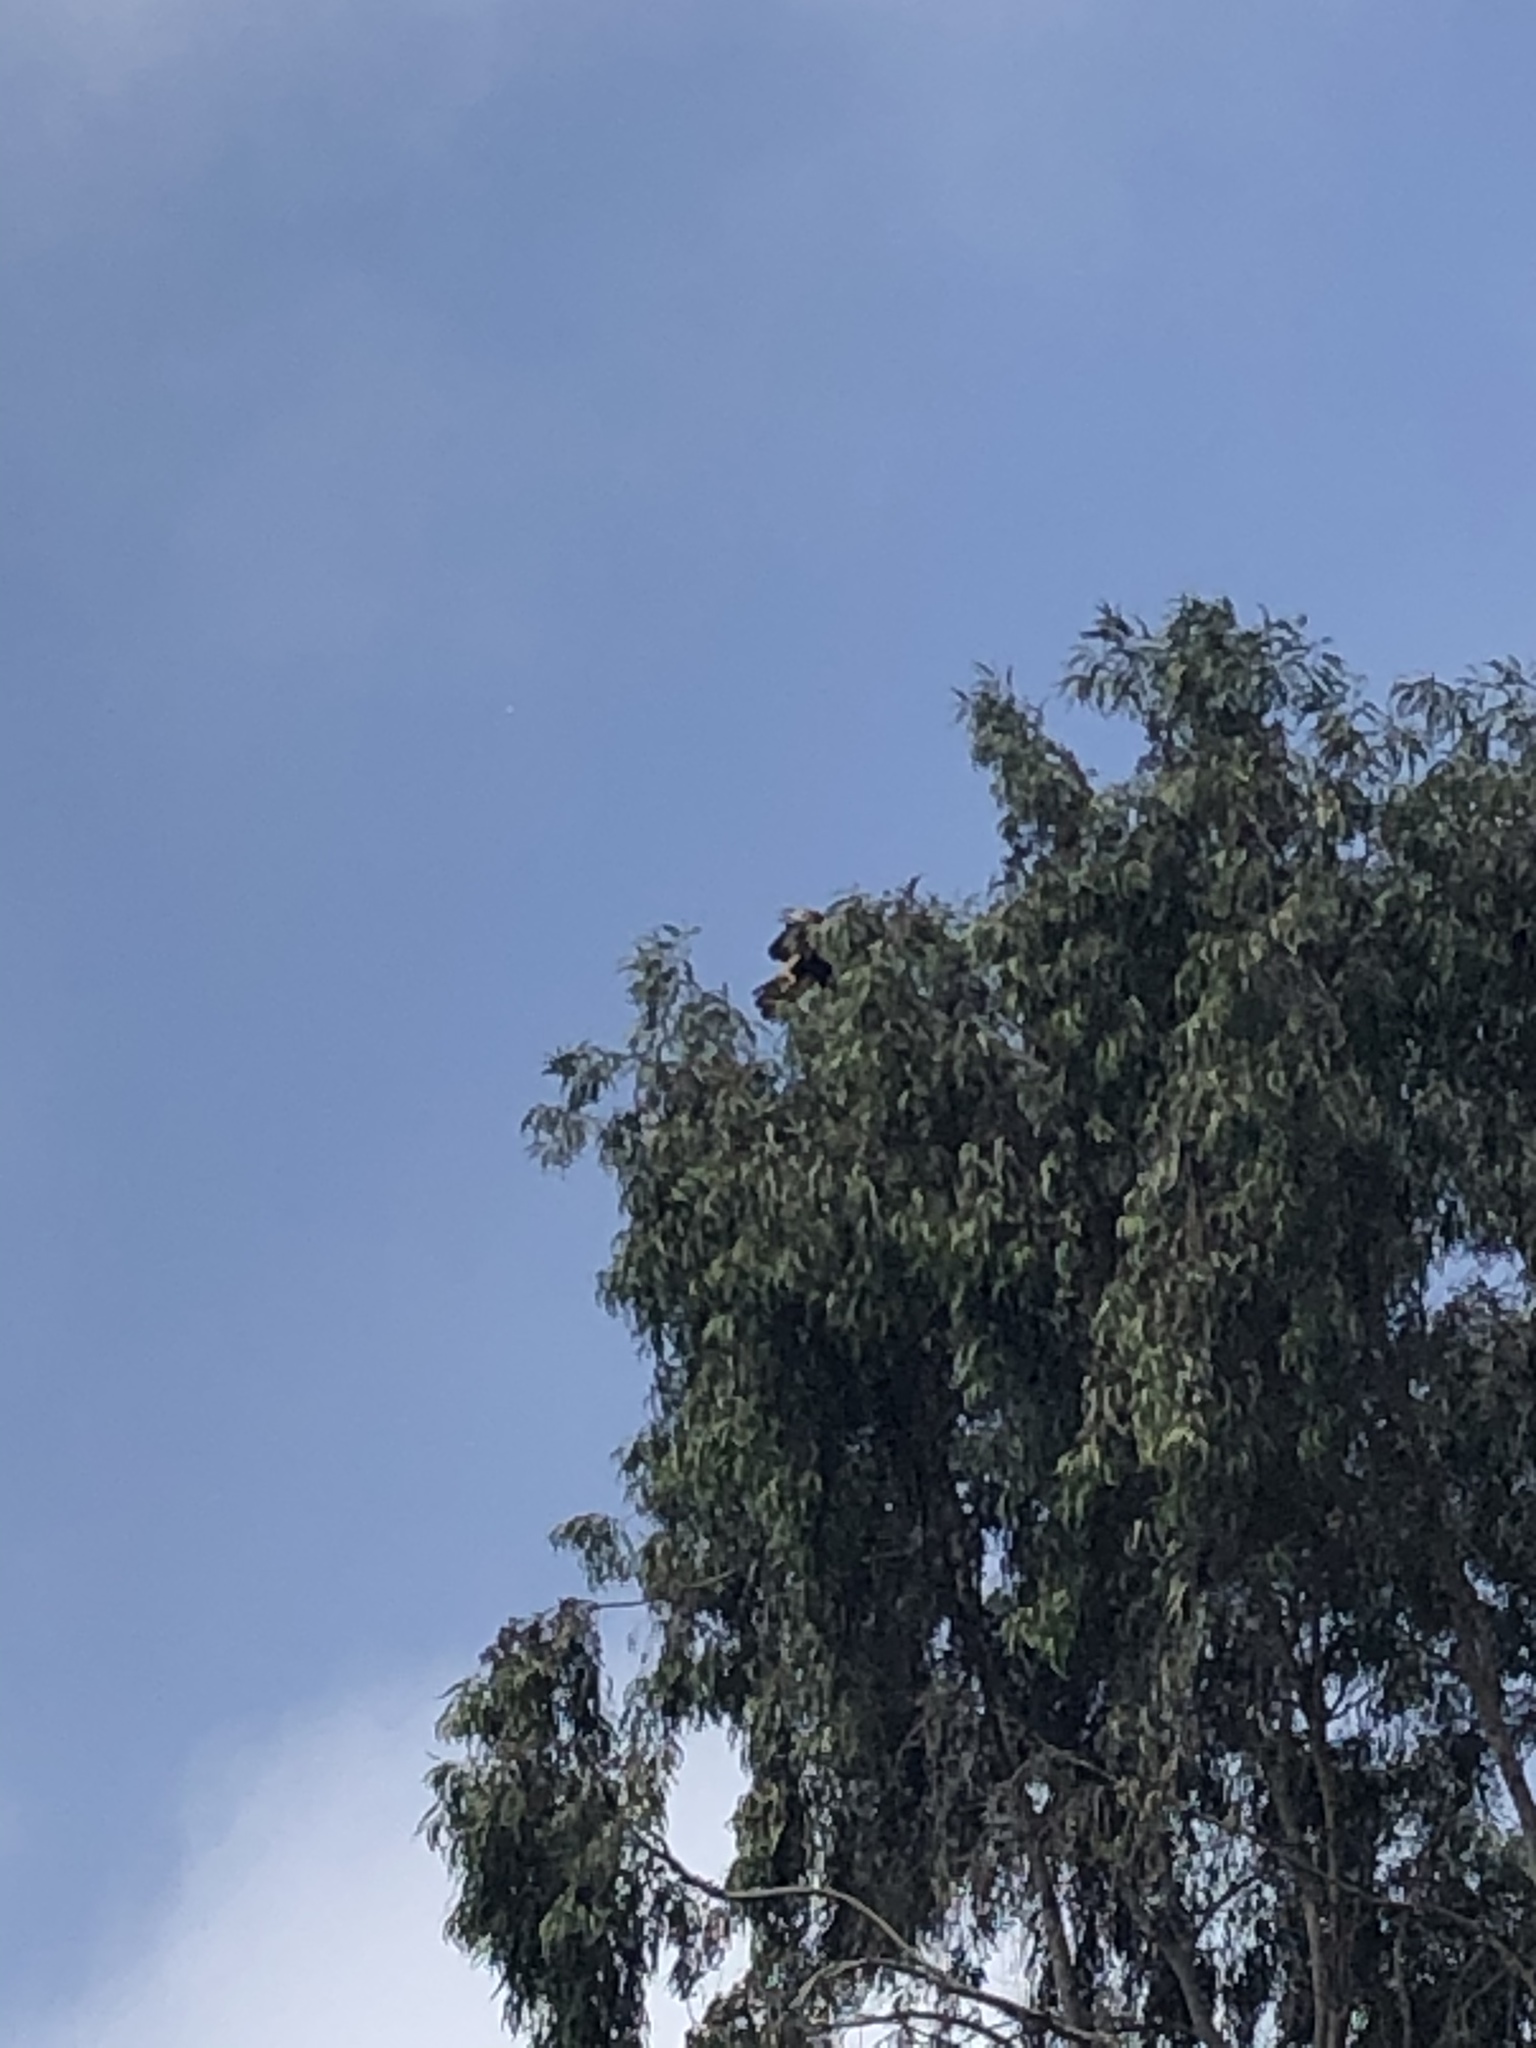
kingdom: Animalia
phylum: Chordata
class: Aves
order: Accipitriformes
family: Accipitridae
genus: Parabuteo
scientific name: Parabuteo unicinctus
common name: Harris's hawk
